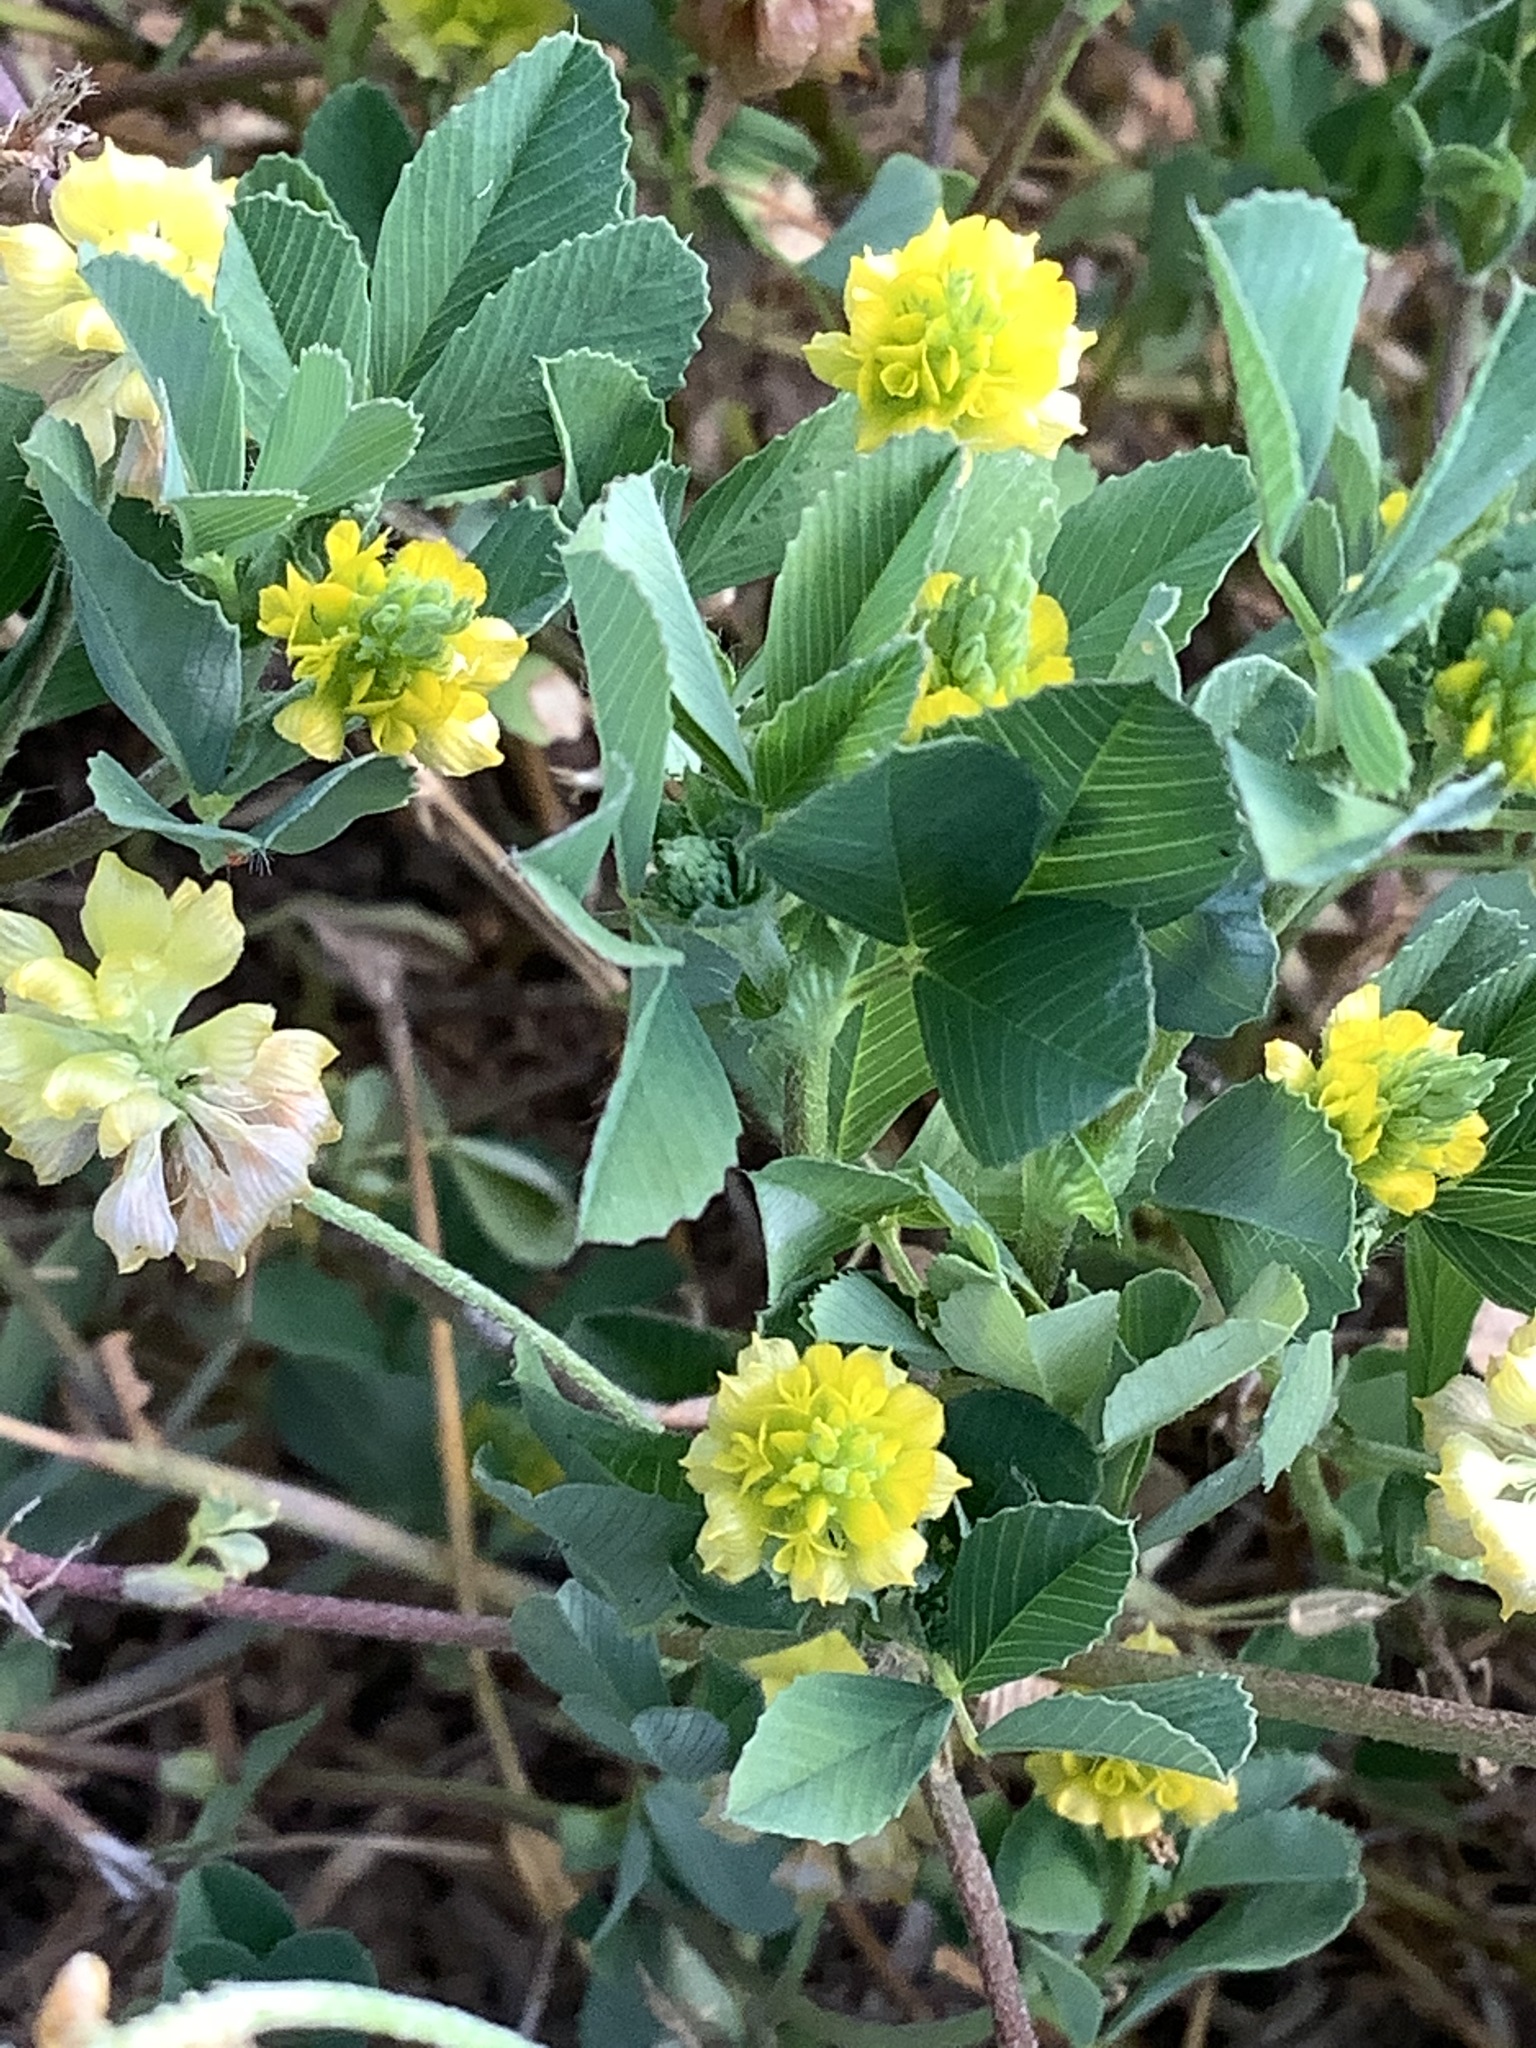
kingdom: Plantae
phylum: Tracheophyta
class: Magnoliopsida
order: Fabales
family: Fabaceae
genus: Trifolium
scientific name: Trifolium campestre
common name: Field clover
